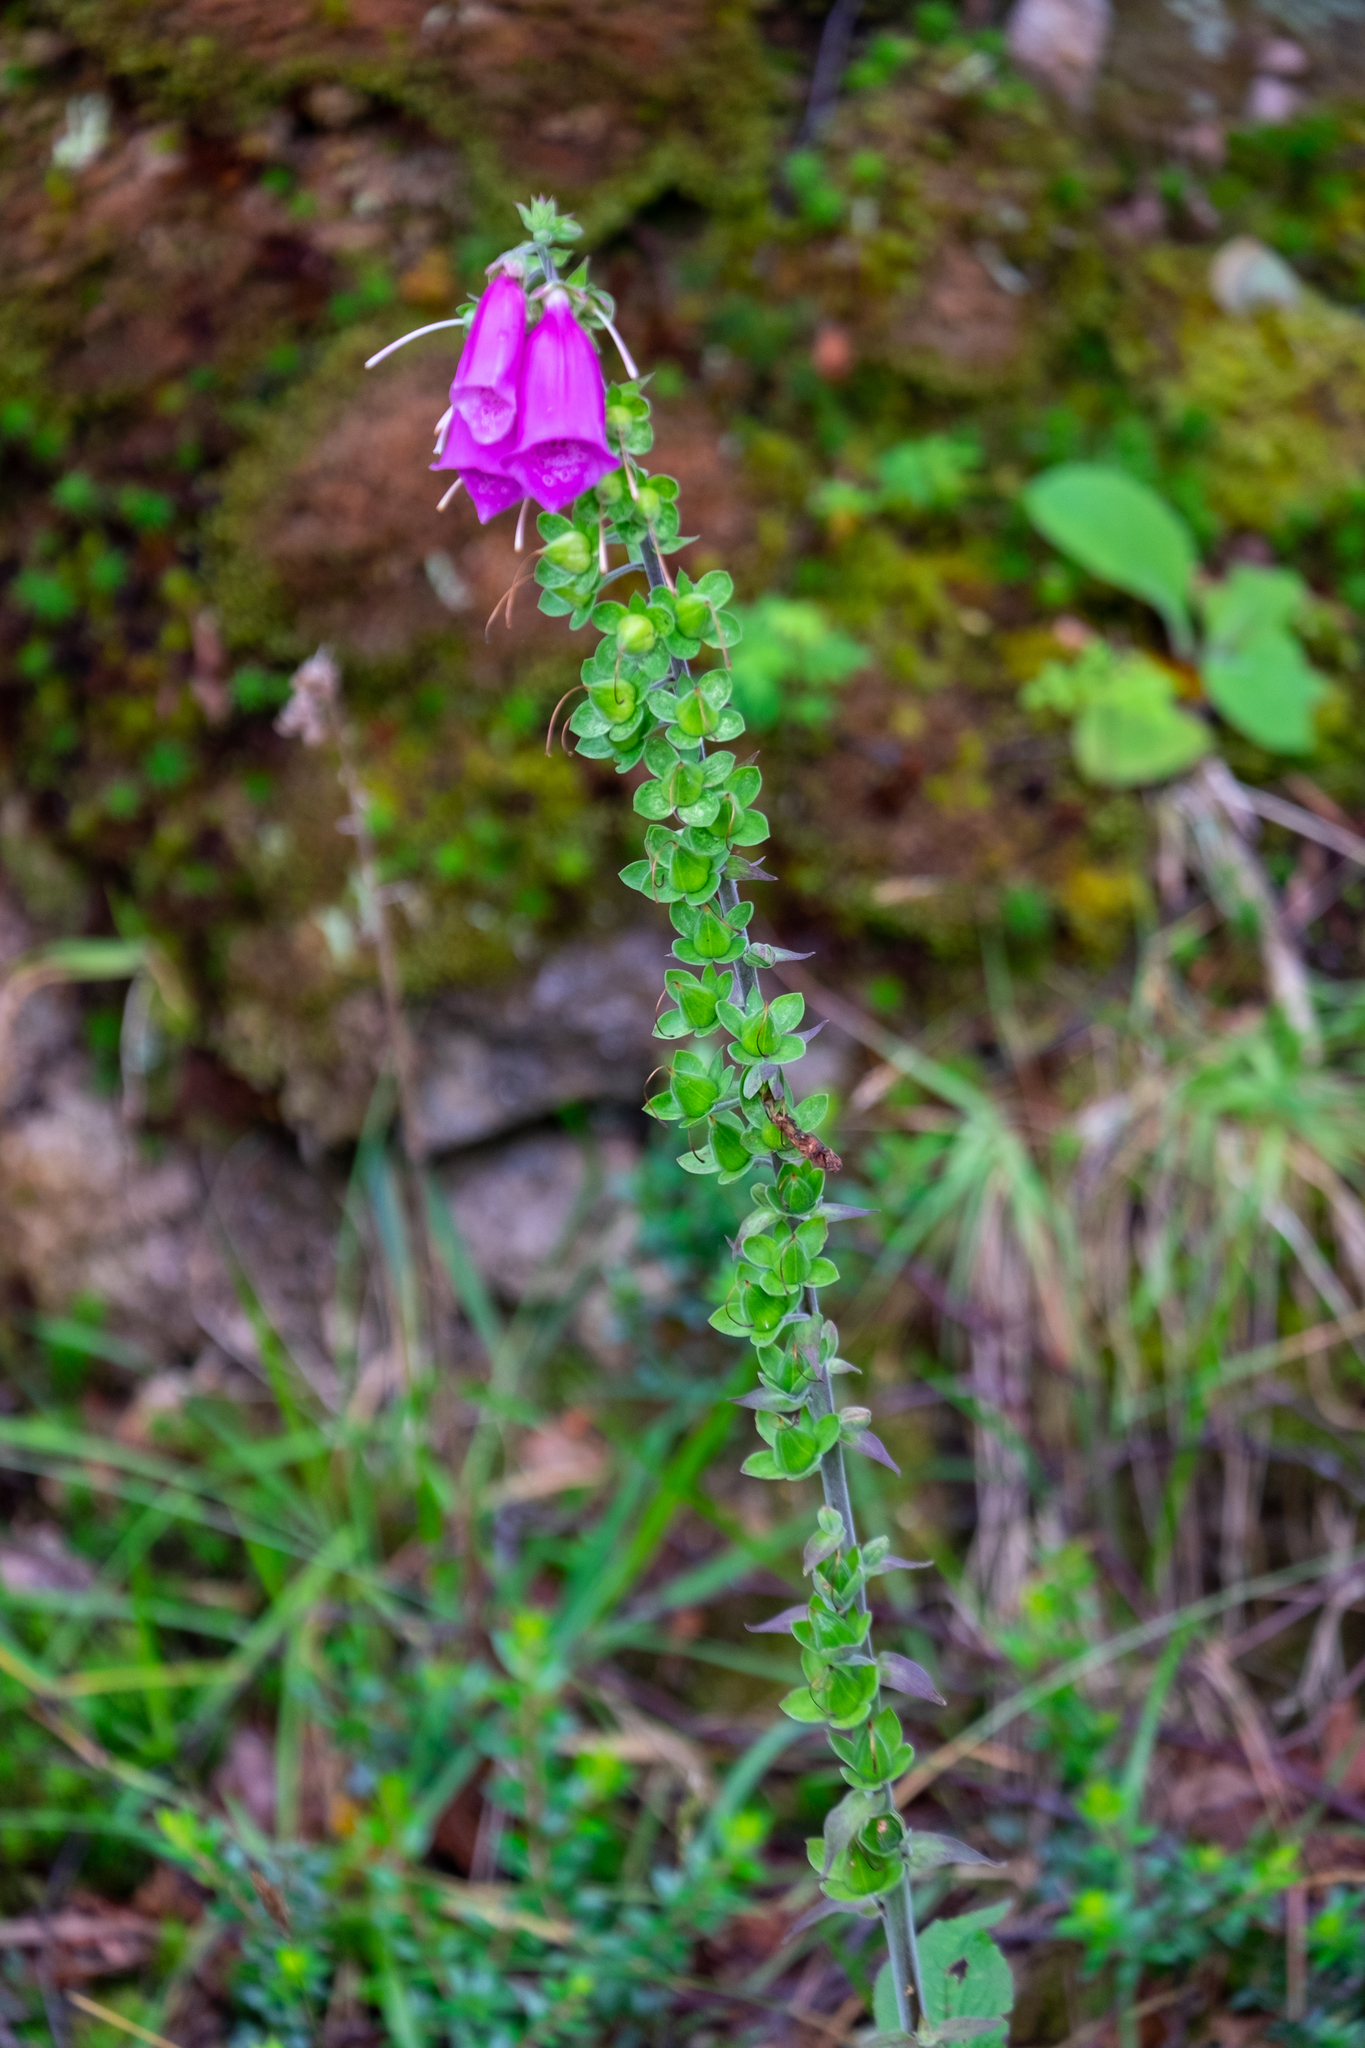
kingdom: Plantae
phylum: Tracheophyta
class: Magnoliopsida
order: Lamiales
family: Plantaginaceae
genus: Digitalis
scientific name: Digitalis purpurea
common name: Foxglove
